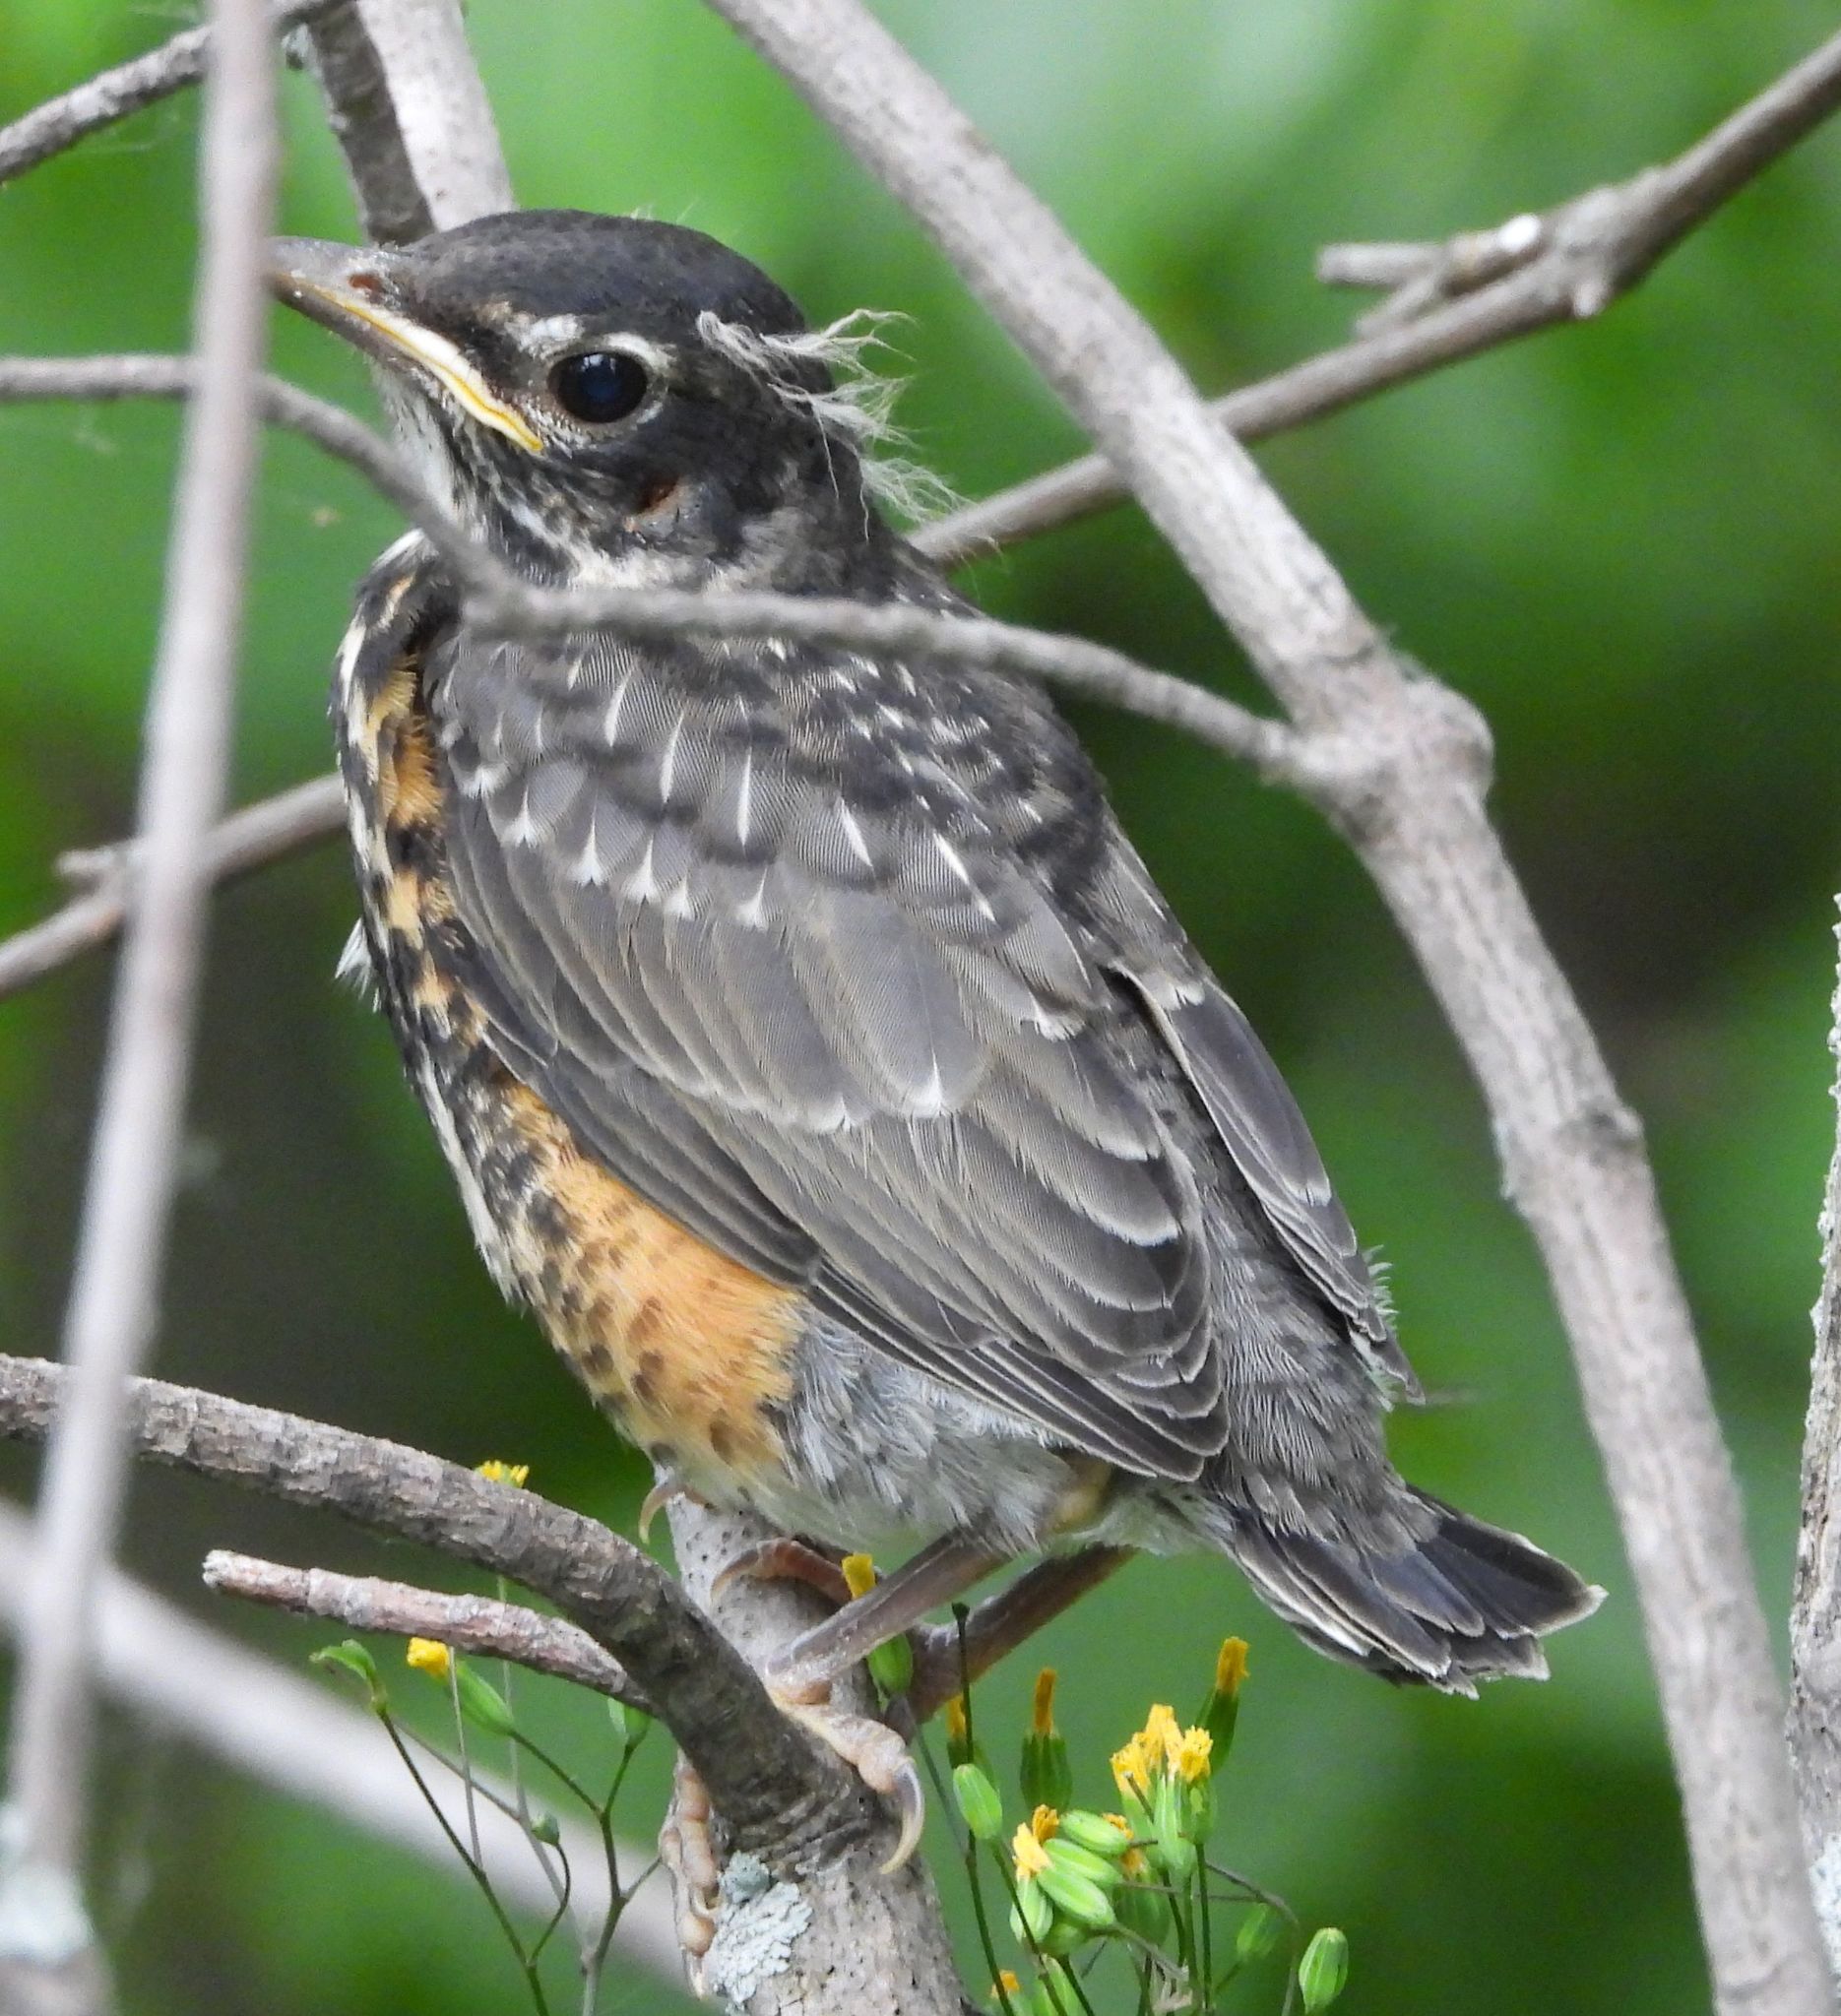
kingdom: Animalia
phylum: Chordata
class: Aves
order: Passeriformes
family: Turdidae
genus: Turdus
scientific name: Turdus migratorius
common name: American robin
